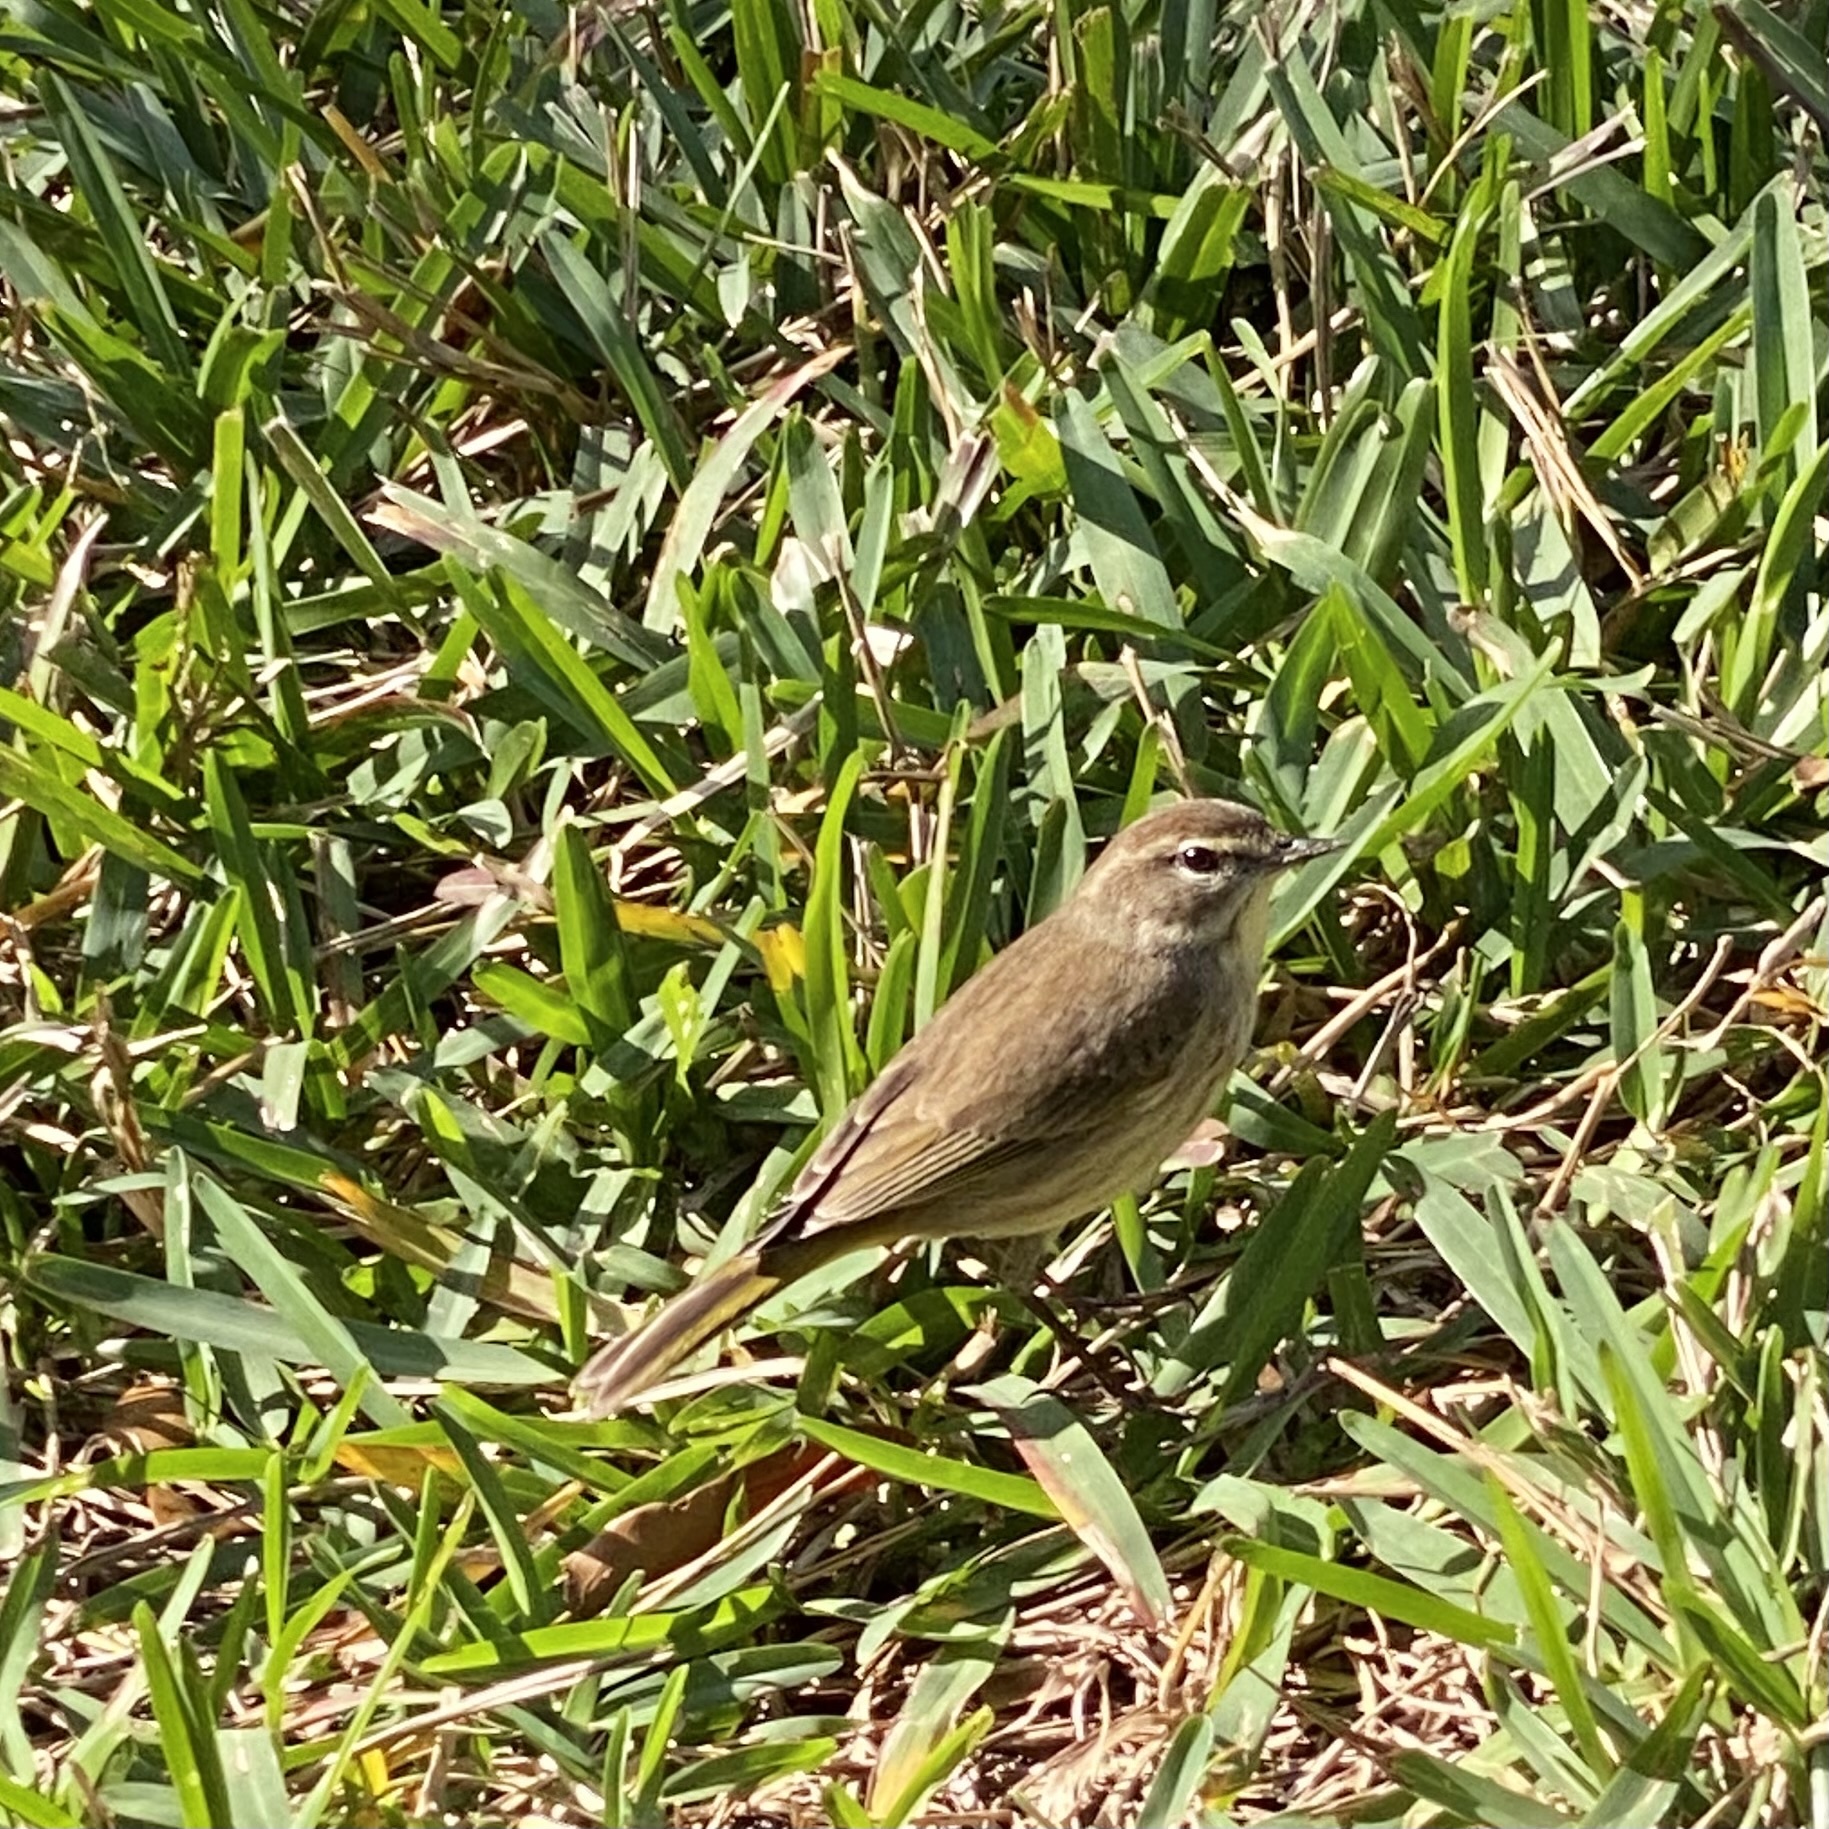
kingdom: Animalia
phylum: Chordata
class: Aves
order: Passeriformes
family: Parulidae
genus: Setophaga
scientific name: Setophaga palmarum
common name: Palm warbler
